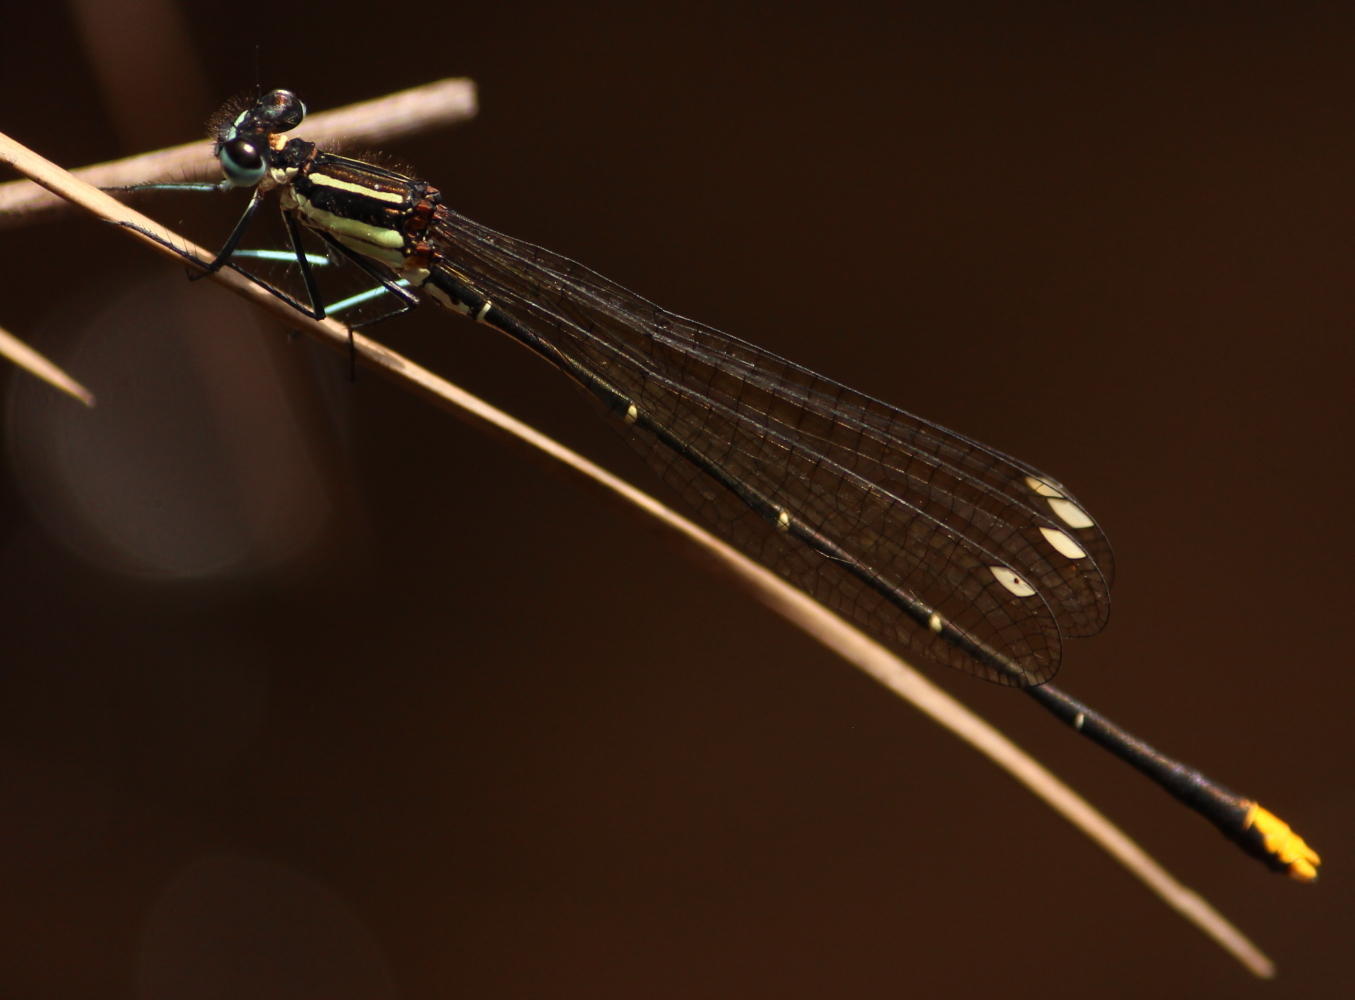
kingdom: Animalia
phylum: Arthropoda
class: Insecta
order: Odonata
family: Platycnemididae
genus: Allocnemis
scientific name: Allocnemis leucosticta
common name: Goldtail
